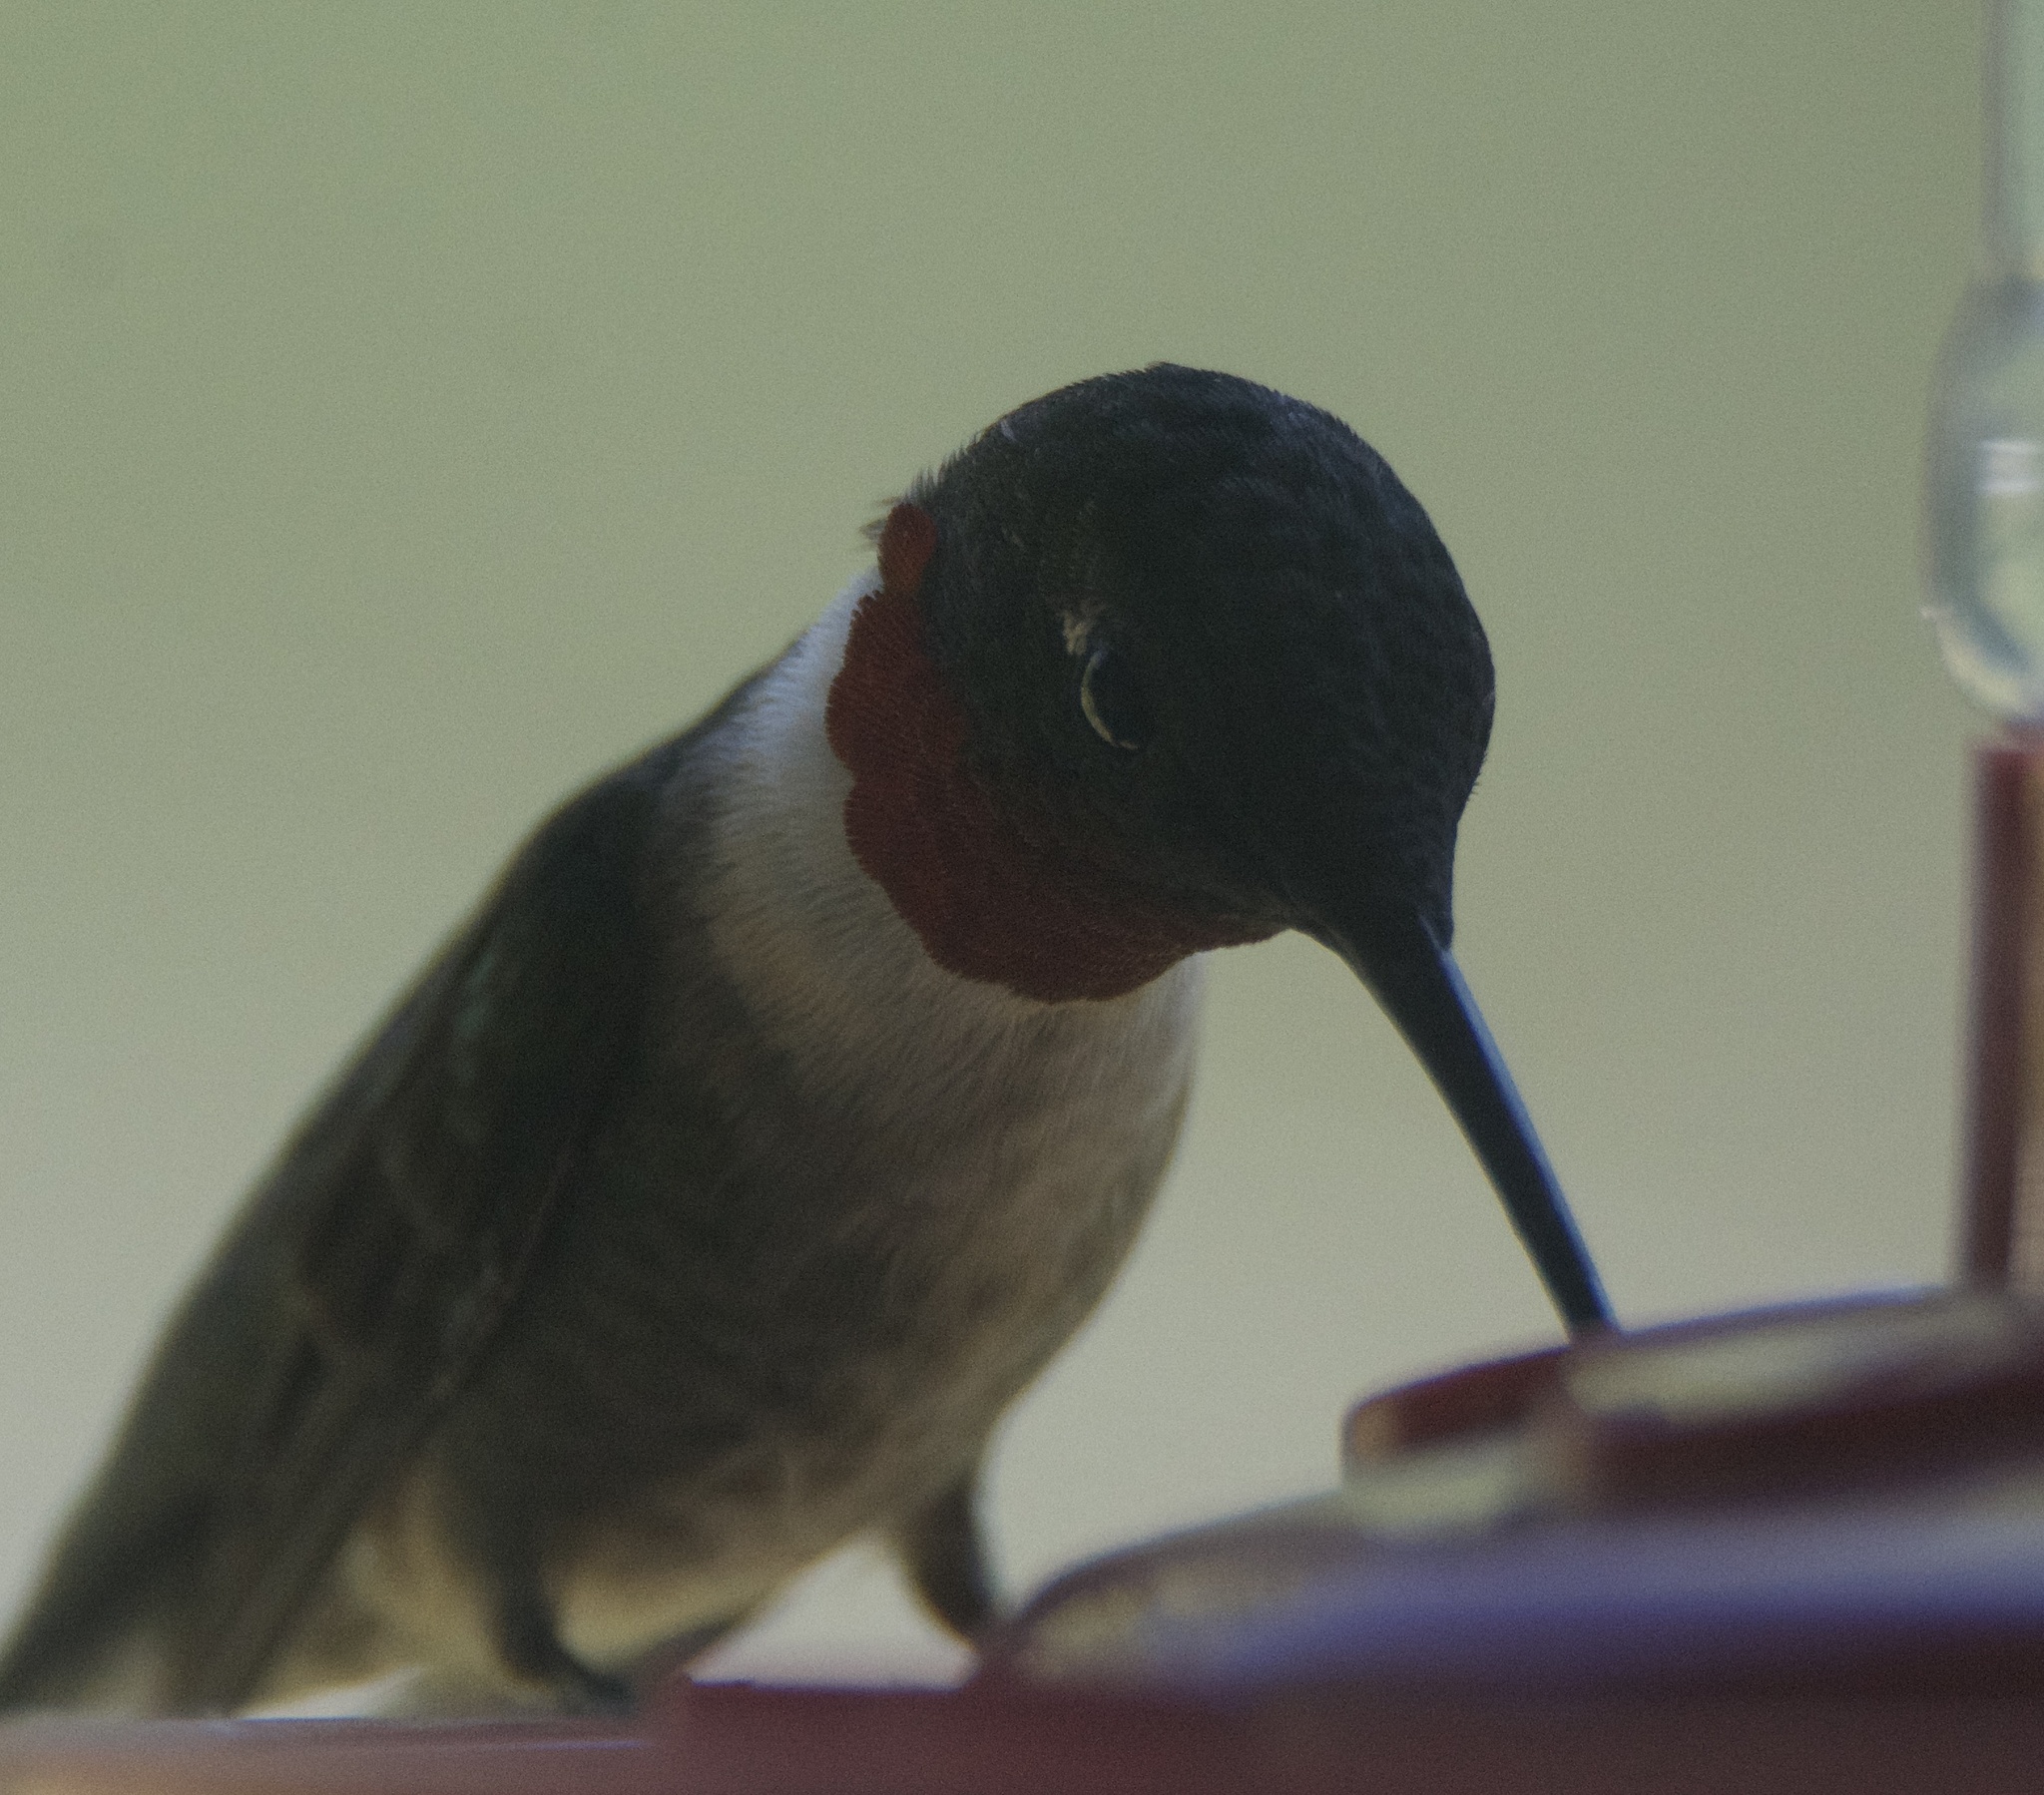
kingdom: Animalia
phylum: Chordata
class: Aves
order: Apodiformes
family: Trochilidae
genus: Archilochus
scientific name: Archilochus colubris
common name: Ruby-throated hummingbird
